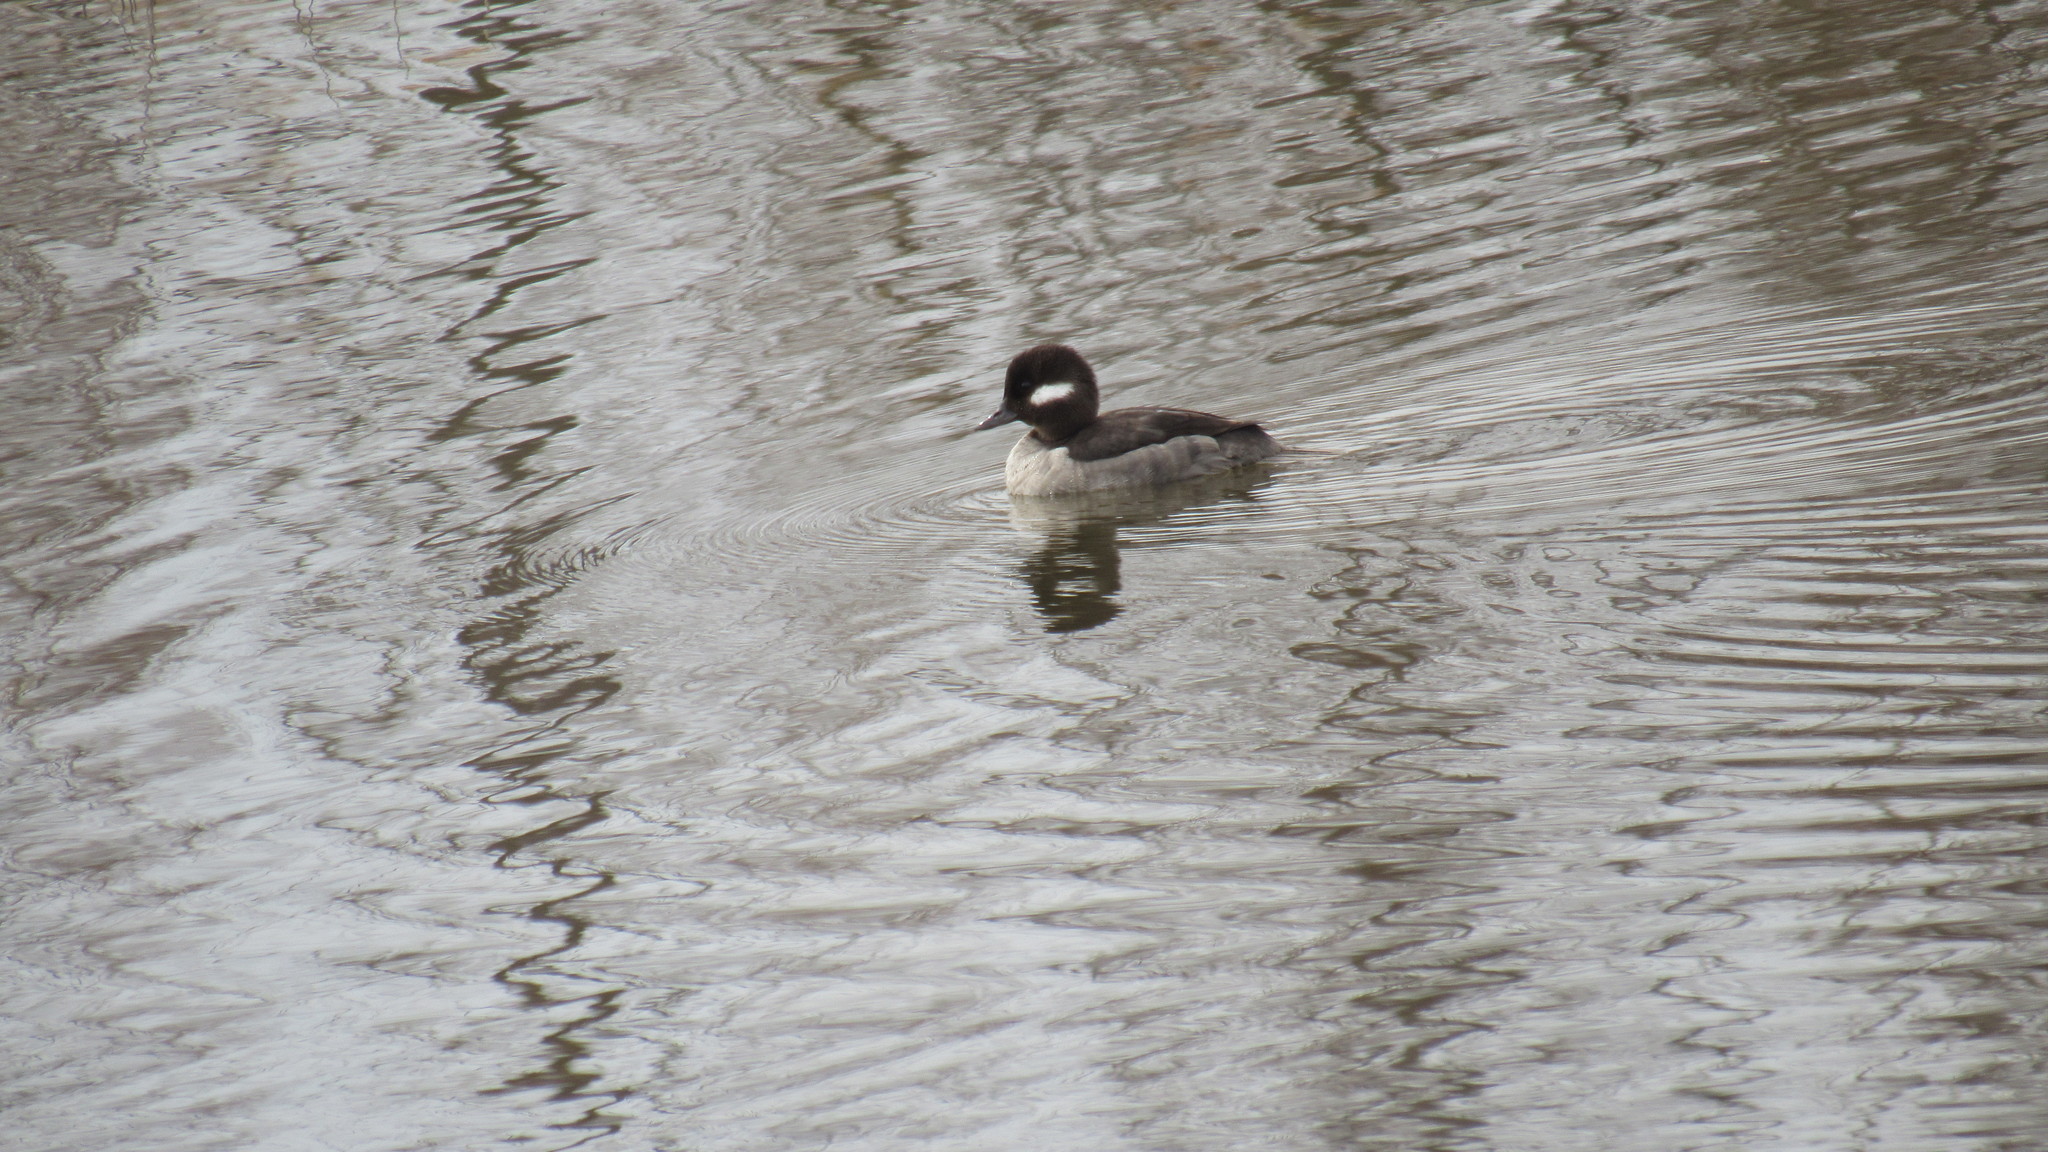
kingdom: Animalia
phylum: Chordata
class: Aves
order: Anseriformes
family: Anatidae
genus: Bucephala
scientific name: Bucephala albeola
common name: Bufflehead
